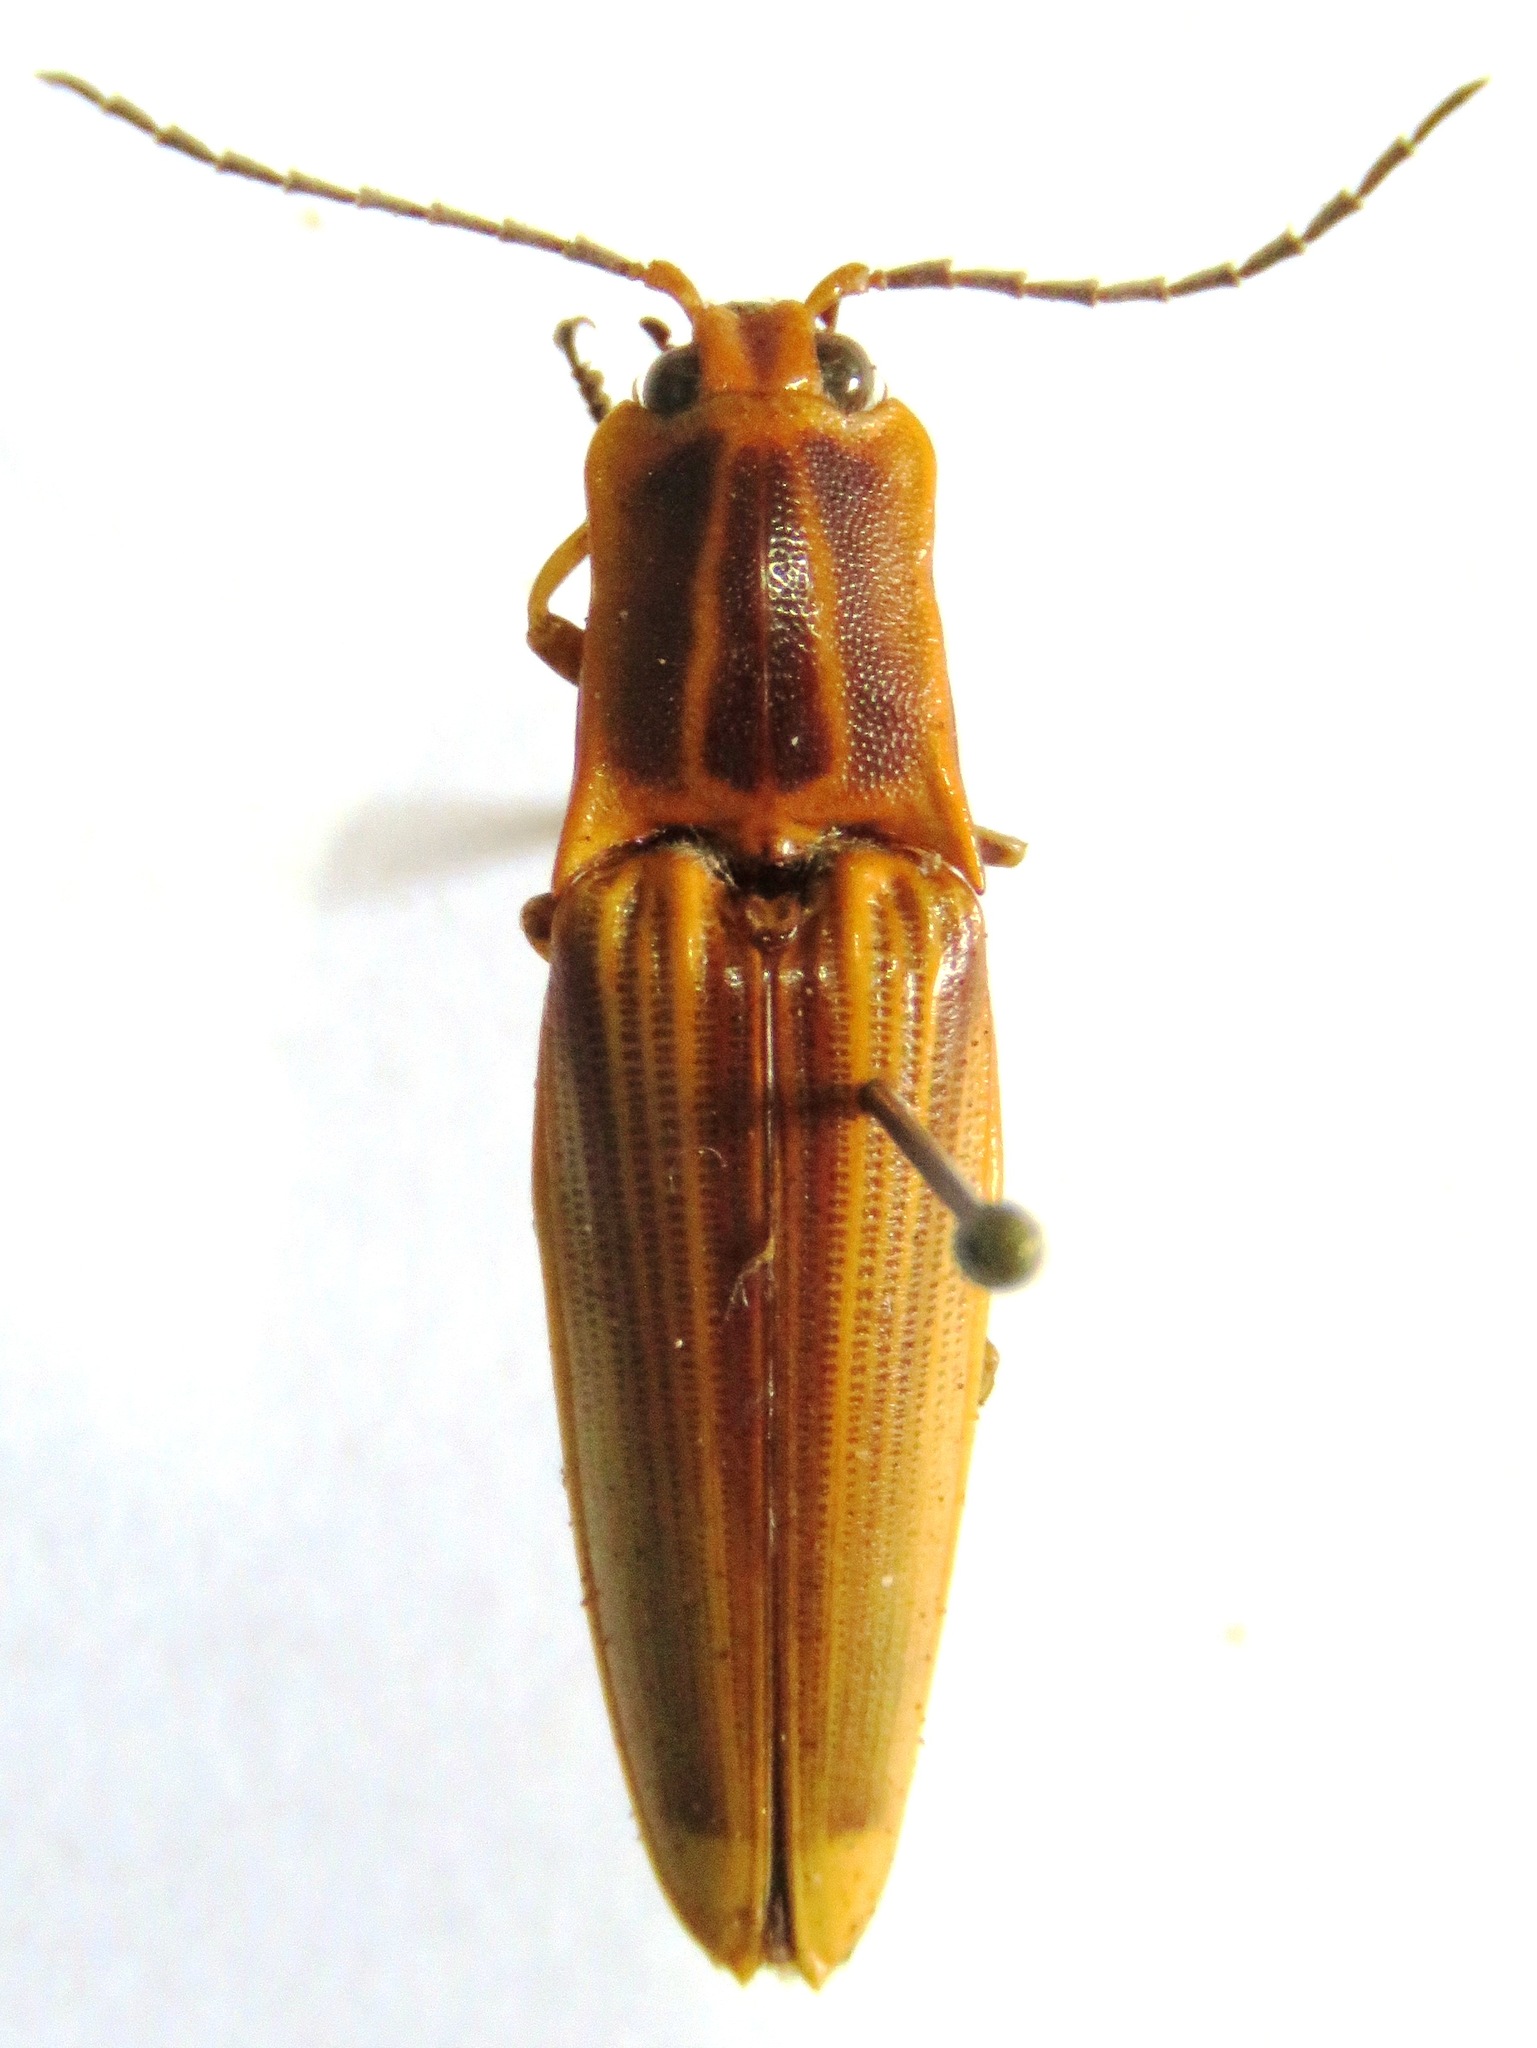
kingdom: Animalia
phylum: Arthropoda
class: Insecta
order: Coleoptera
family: Elateridae
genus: Semiotus
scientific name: Semiotus ligneus
